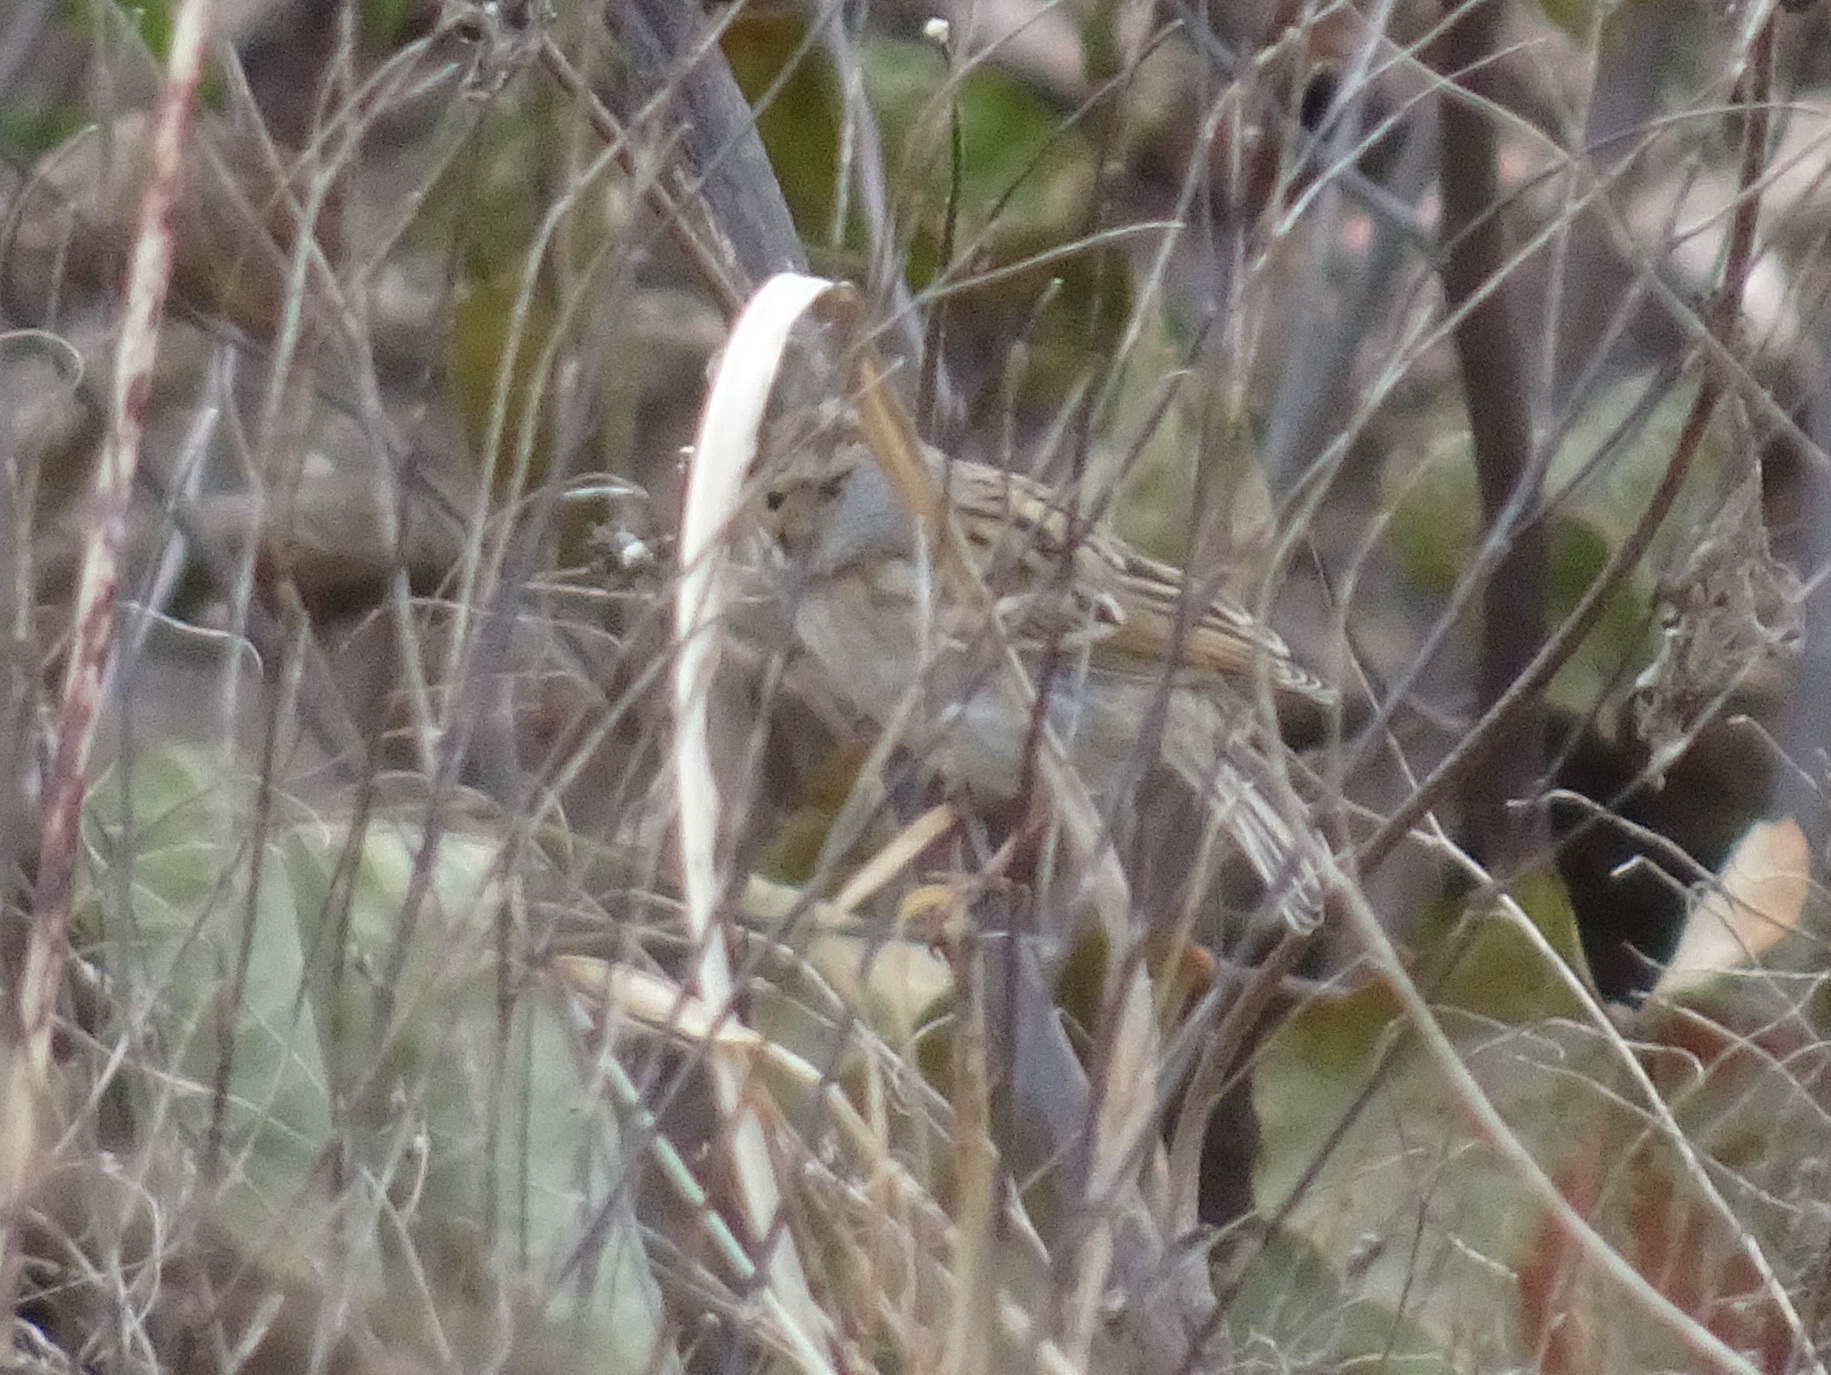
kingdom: Animalia
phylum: Chordata
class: Aves
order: Passeriformes
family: Passerellidae
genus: Spizella
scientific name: Spizella pallida
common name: Clay-colored sparrow
